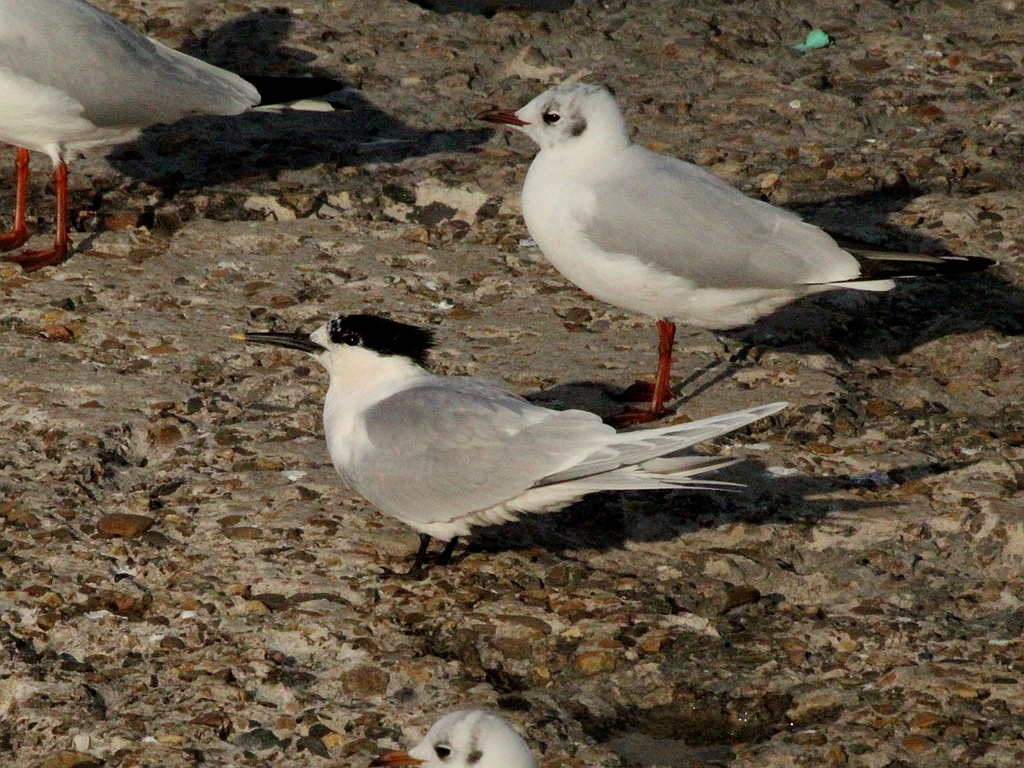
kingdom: Animalia
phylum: Chordata
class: Aves
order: Charadriiformes
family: Laridae
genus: Thalasseus
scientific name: Thalasseus sandvicensis
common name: Sandwich tern
